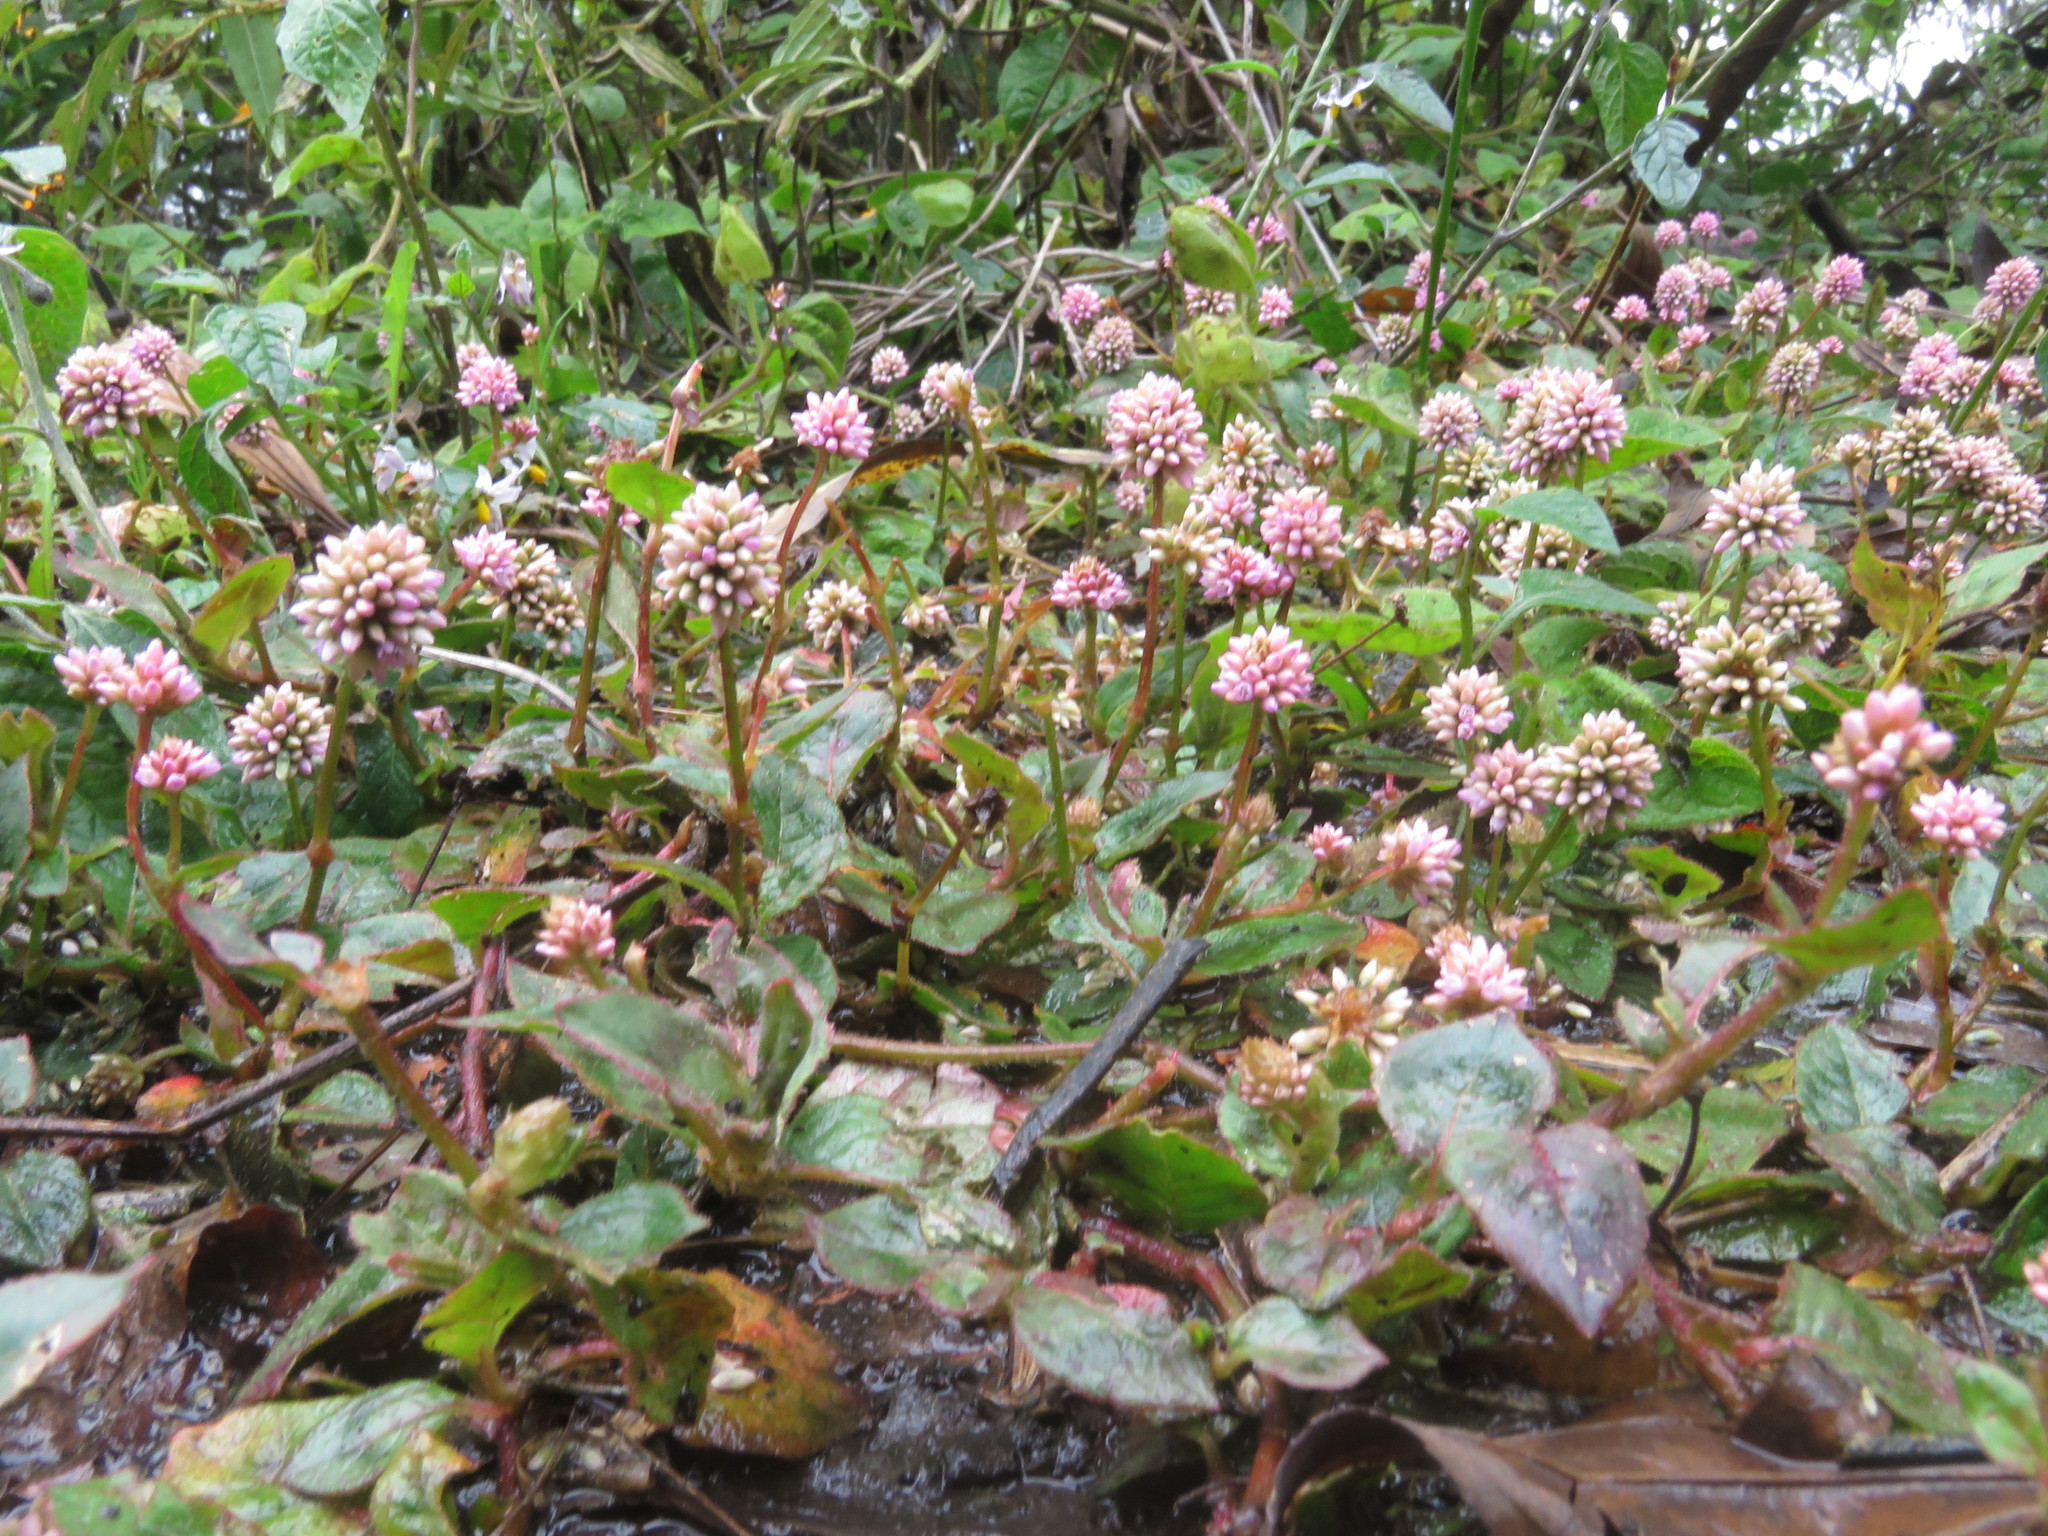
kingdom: Plantae
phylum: Tracheophyta
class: Magnoliopsida
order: Caryophyllales
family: Polygonaceae
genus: Persicaria
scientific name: Persicaria capitata
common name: Pinkhead smartweed
